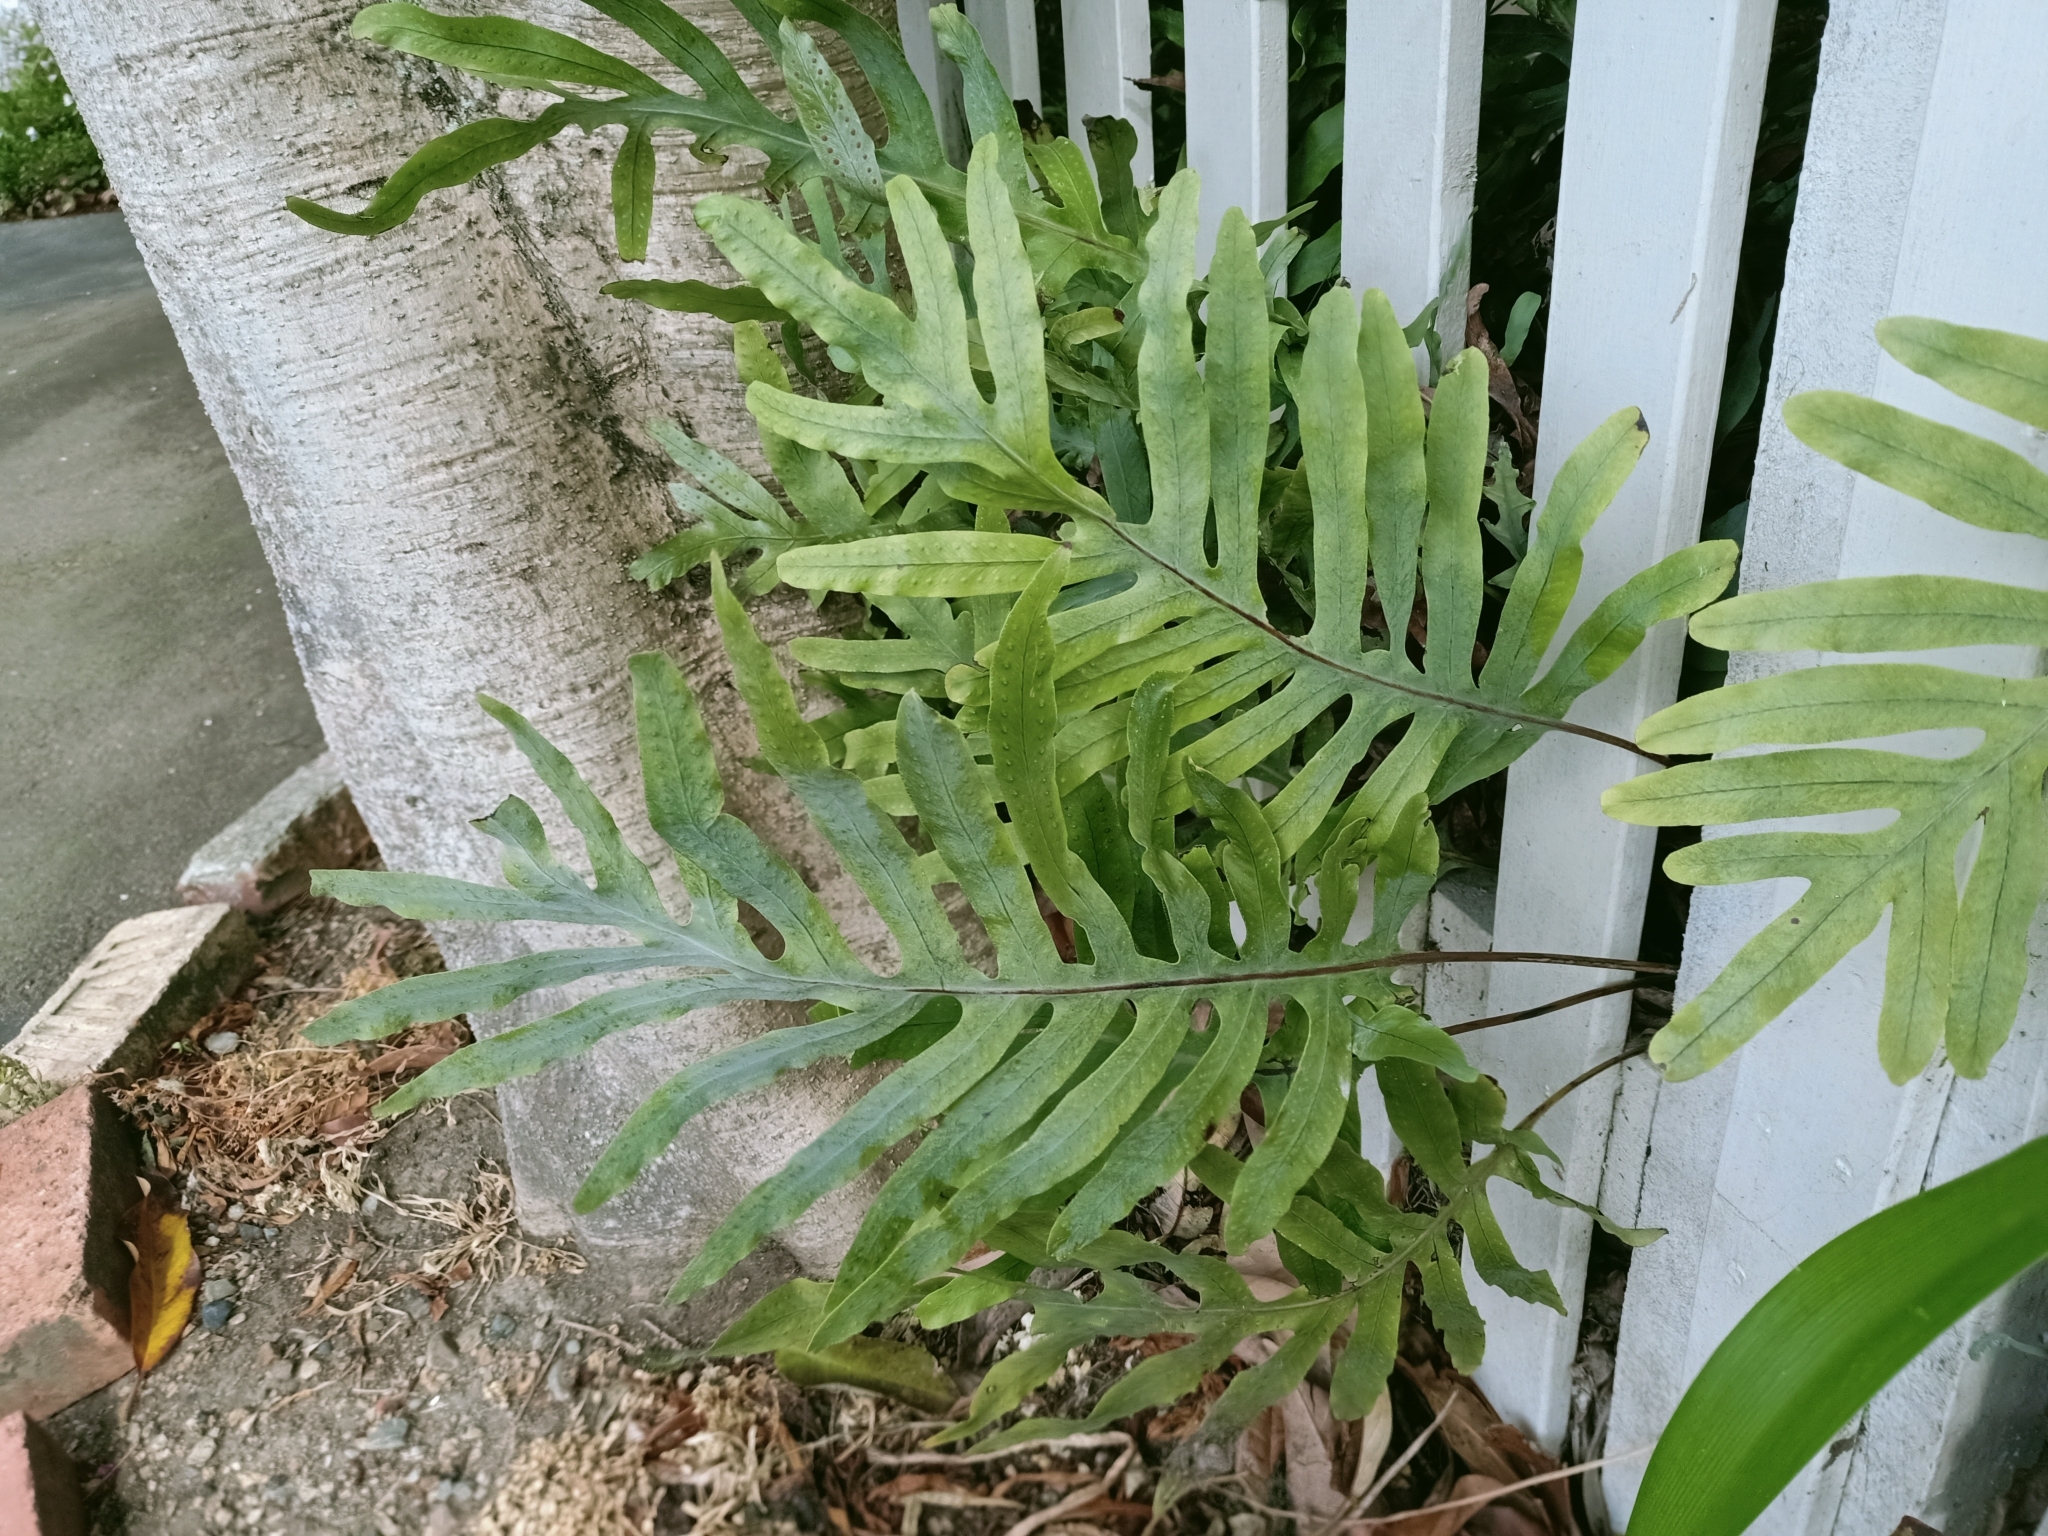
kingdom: Plantae
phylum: Tracheophyta
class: Polypodiopsida
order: Polypodiales
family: Polypodiaceae
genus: Phlebodium
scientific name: Phlebodium aureum
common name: Gold-foot fern
